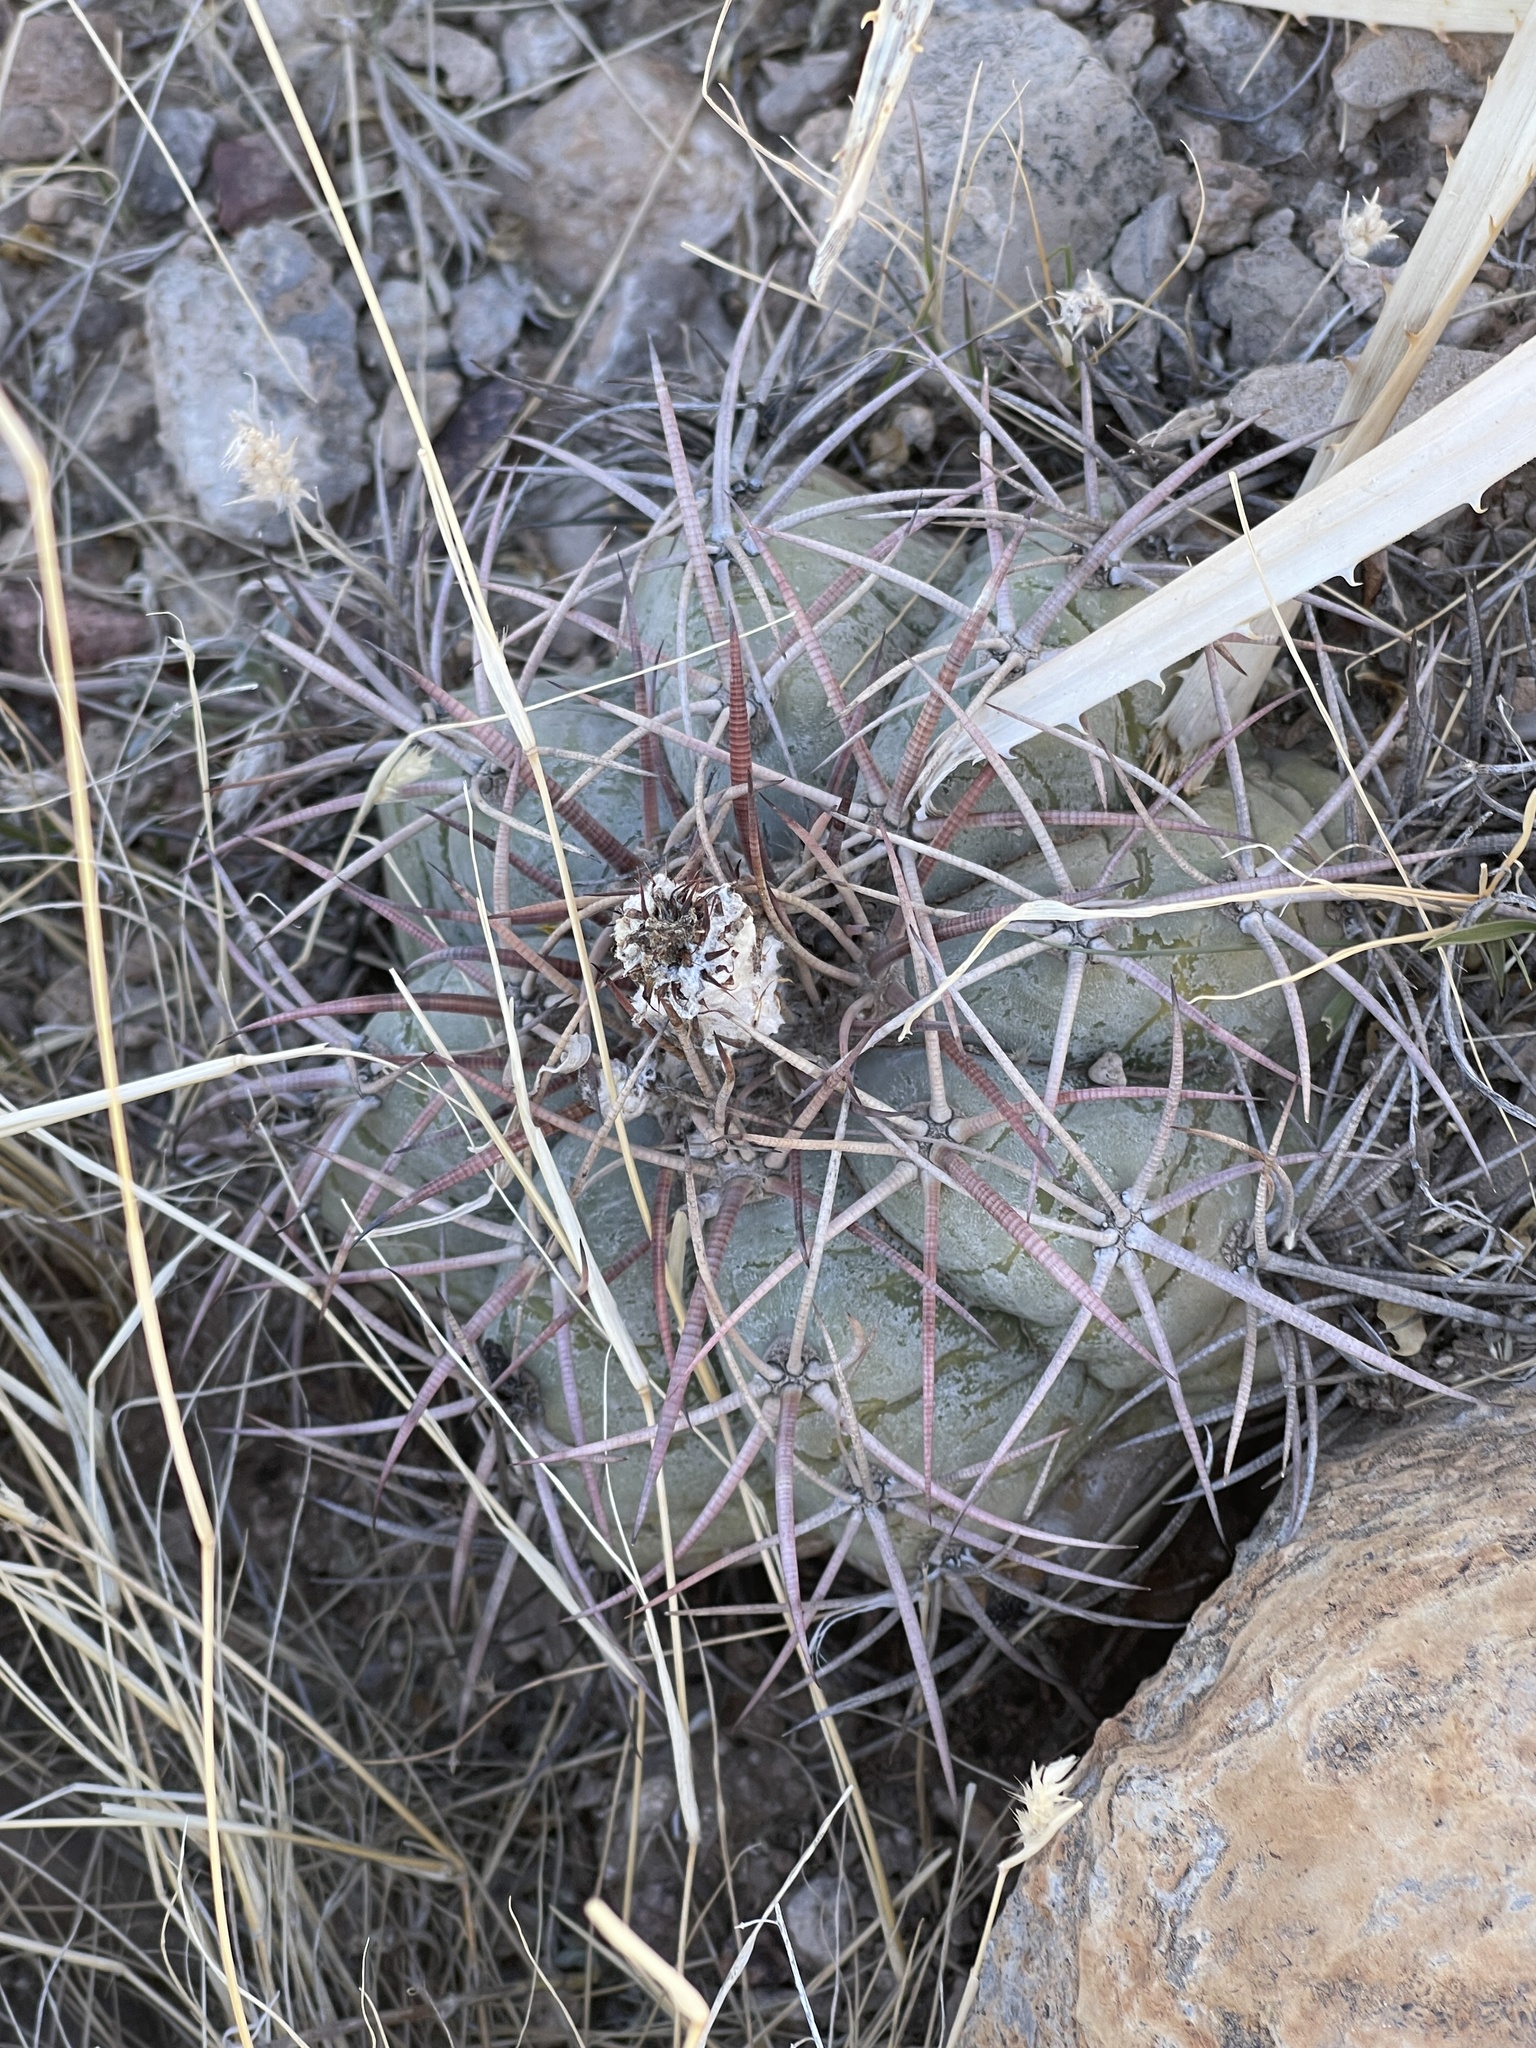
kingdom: Plantae
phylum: Tracheophyta
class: Magnoliopsida
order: Caryophyllales
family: Cactaceae
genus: Echinocactus
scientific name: Echinocactus horizonthalonius
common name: Devilshead
